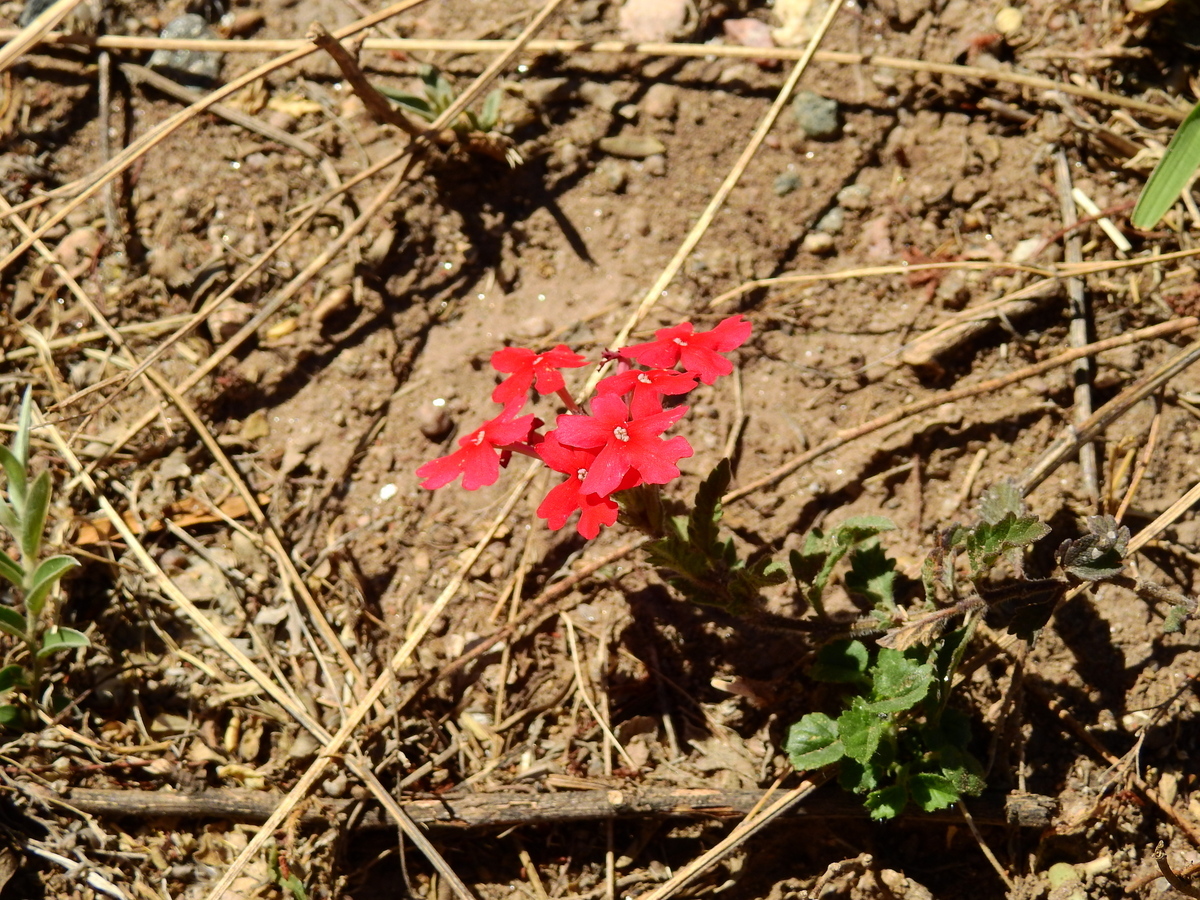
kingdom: Plantae
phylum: Tracheophyta
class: Magnoliopsida
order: Lamiales
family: Verbenaceae
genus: Verbena
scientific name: Verbena peruviana
